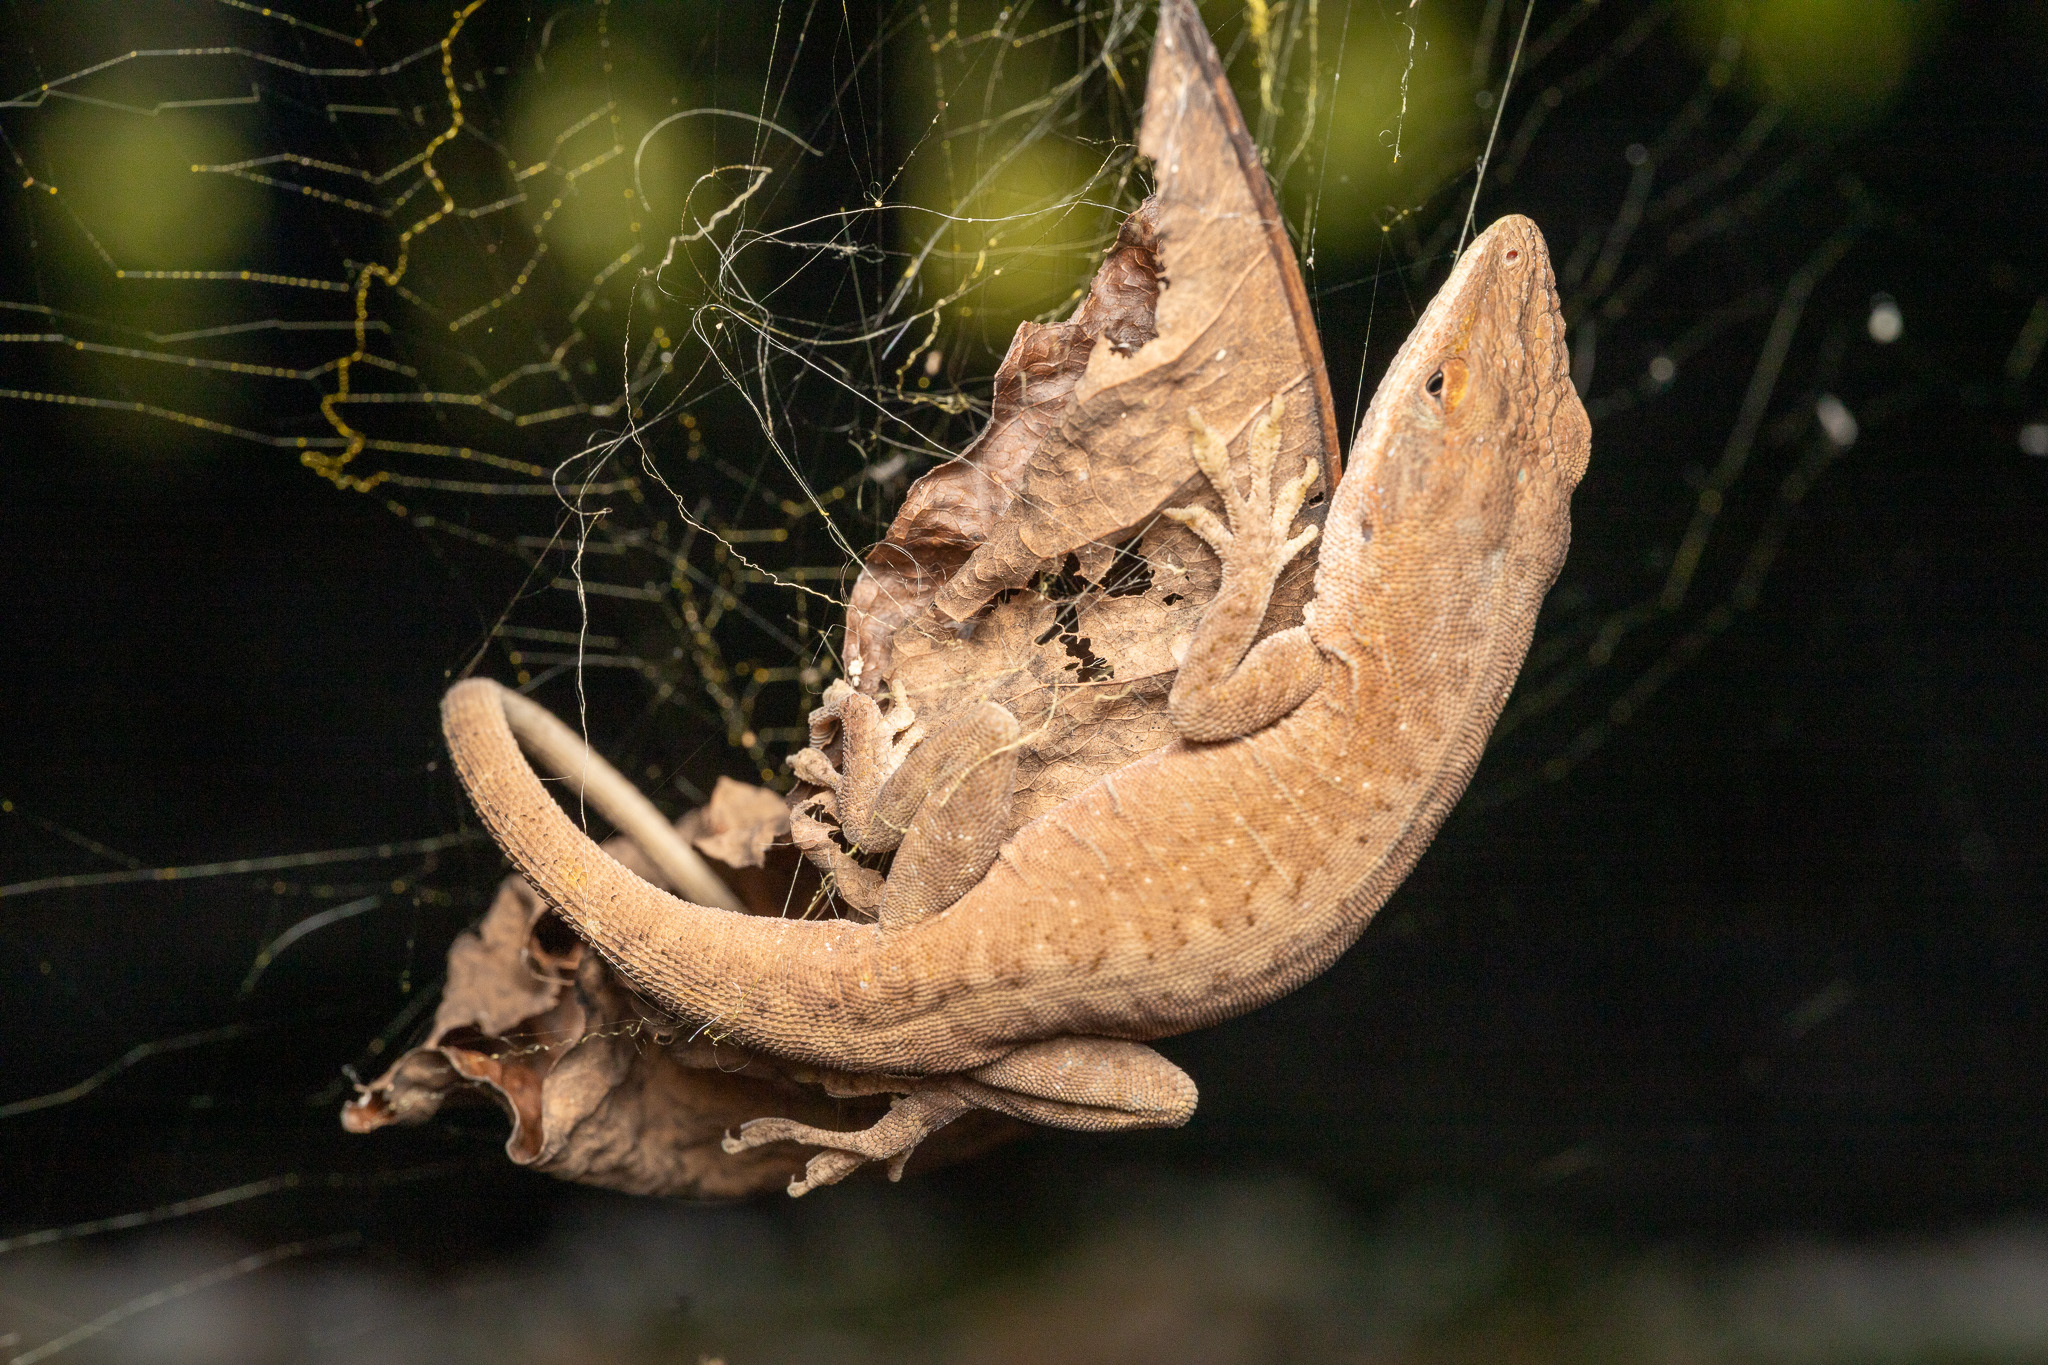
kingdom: Animalia
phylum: Chordata
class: Squamata
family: Dactyloidae
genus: Anolis
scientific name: Anolis carolinensis
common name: Green anole
